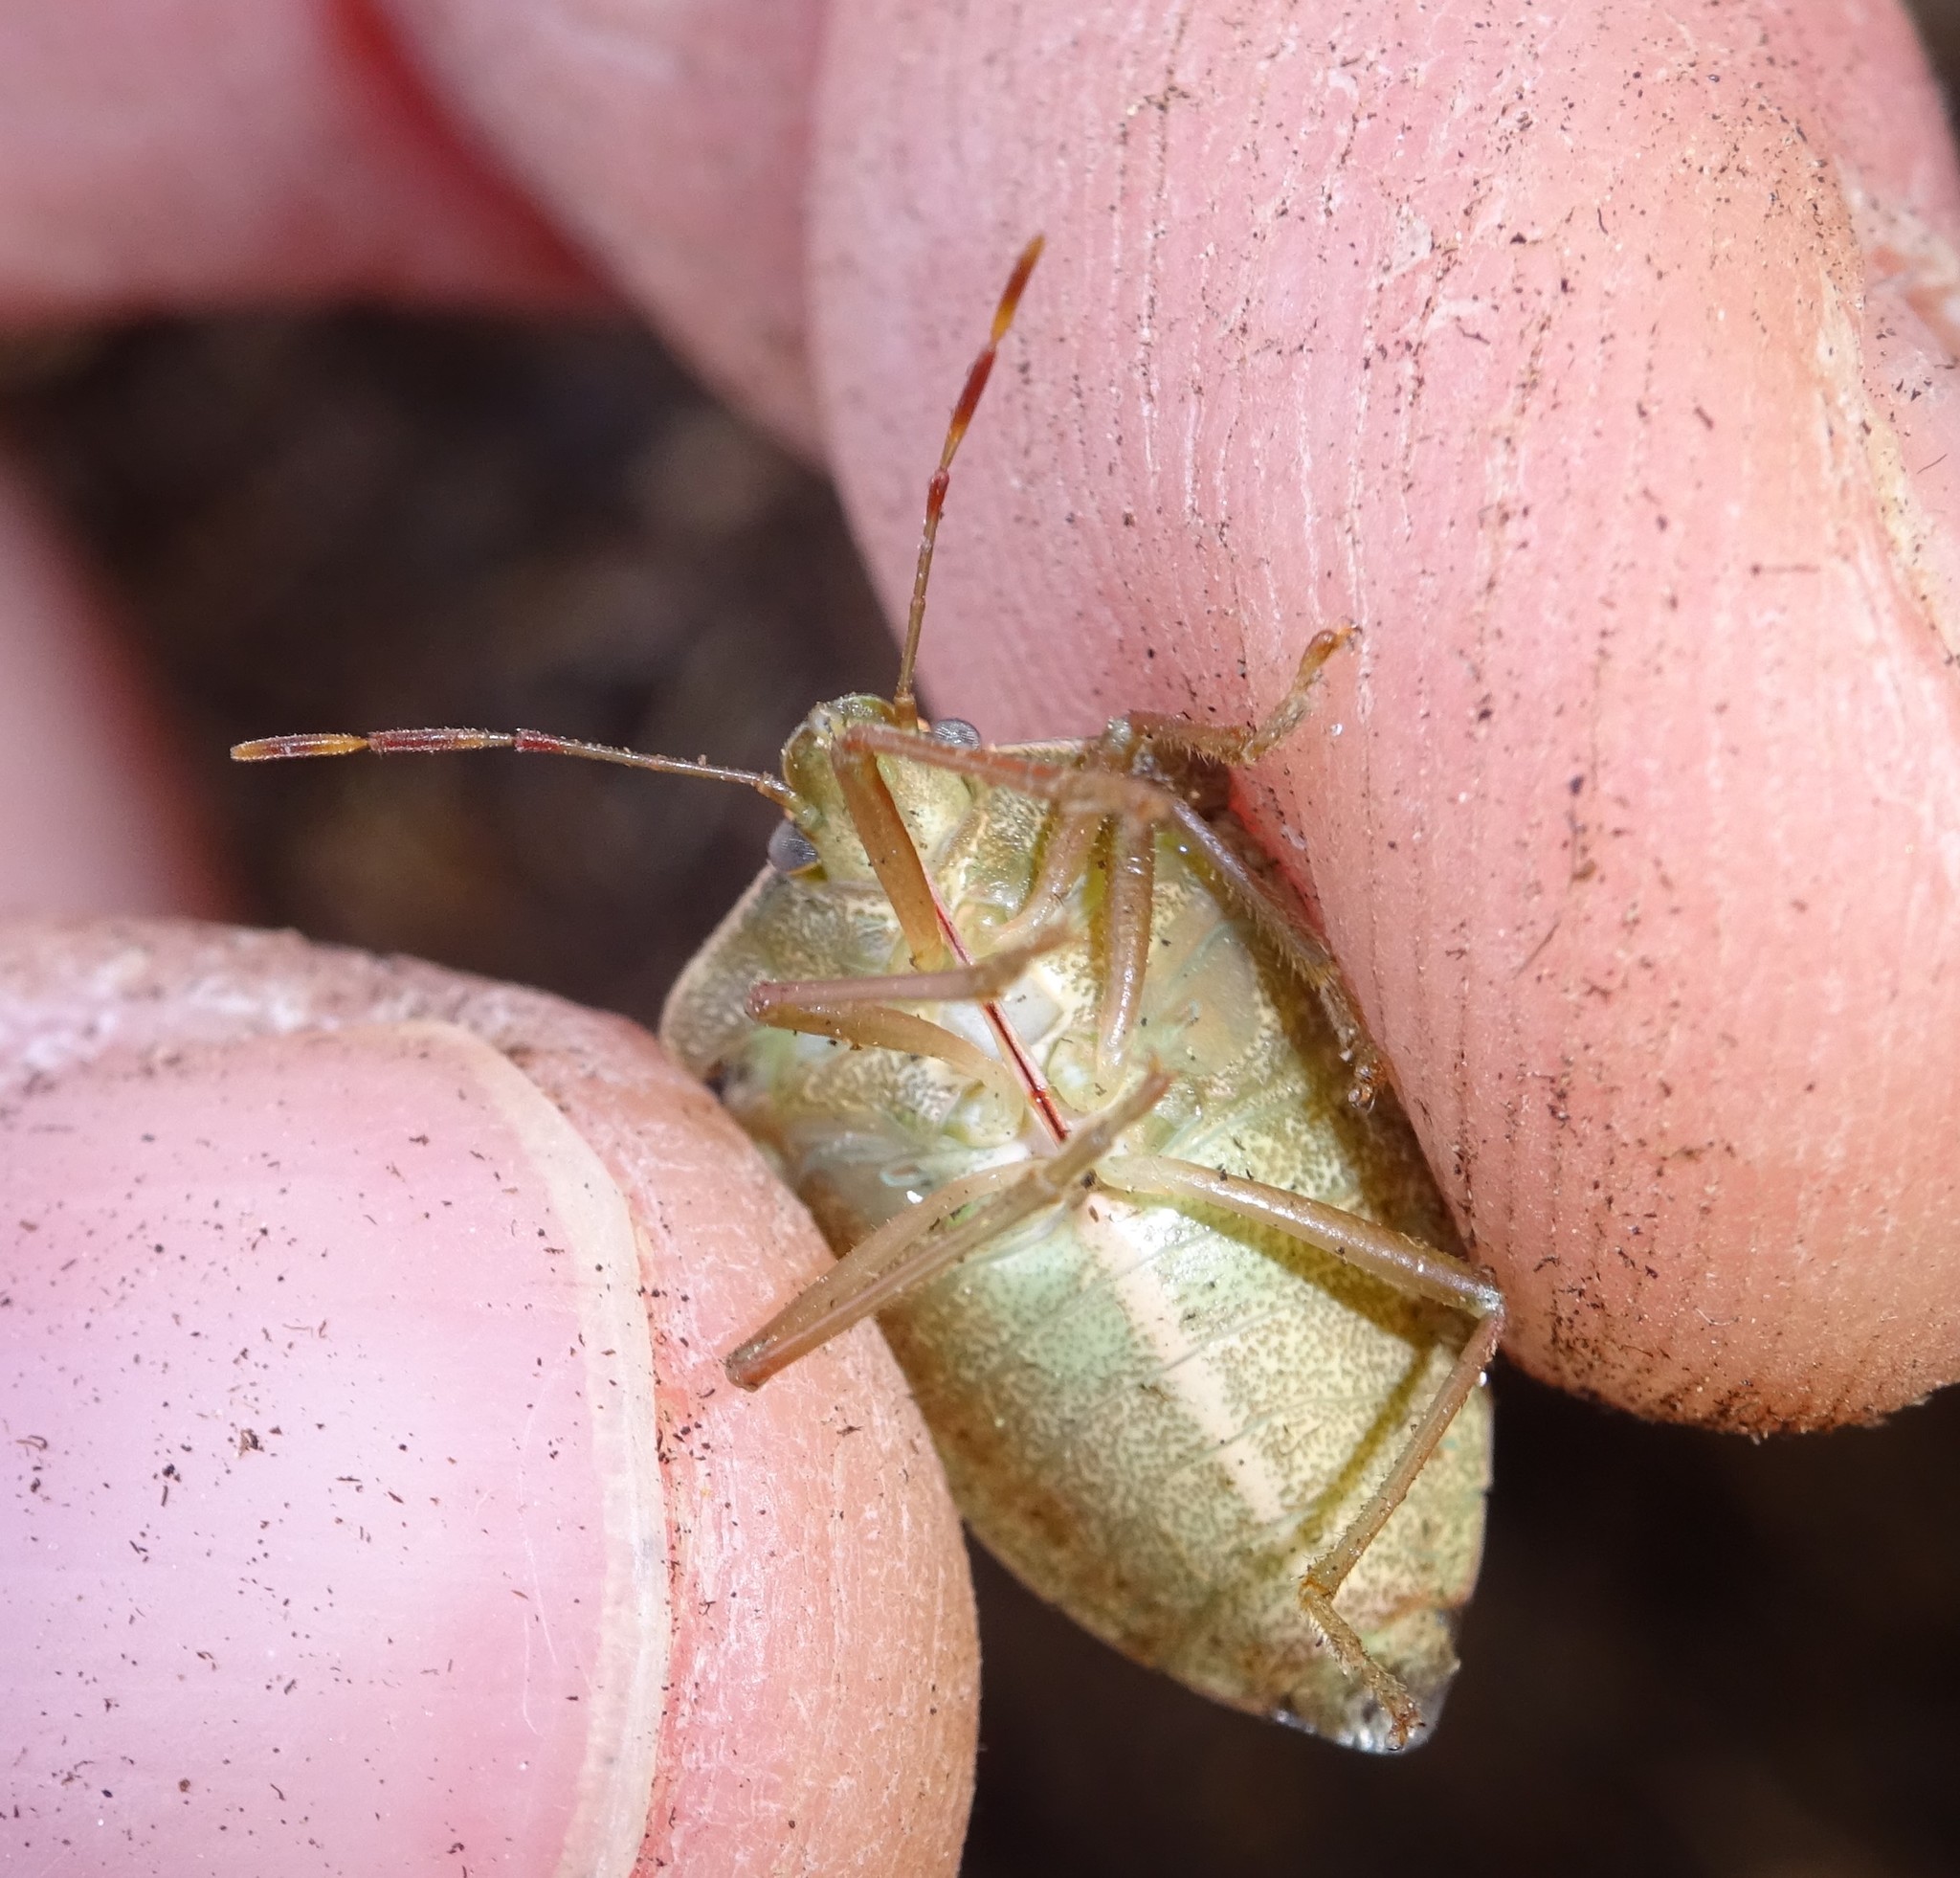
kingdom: Animalia
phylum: Arthropoda
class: Insecta
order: Hemiptera
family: Pentatomidae
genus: Nezara
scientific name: Nezara viridula
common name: Southern green stink bug
